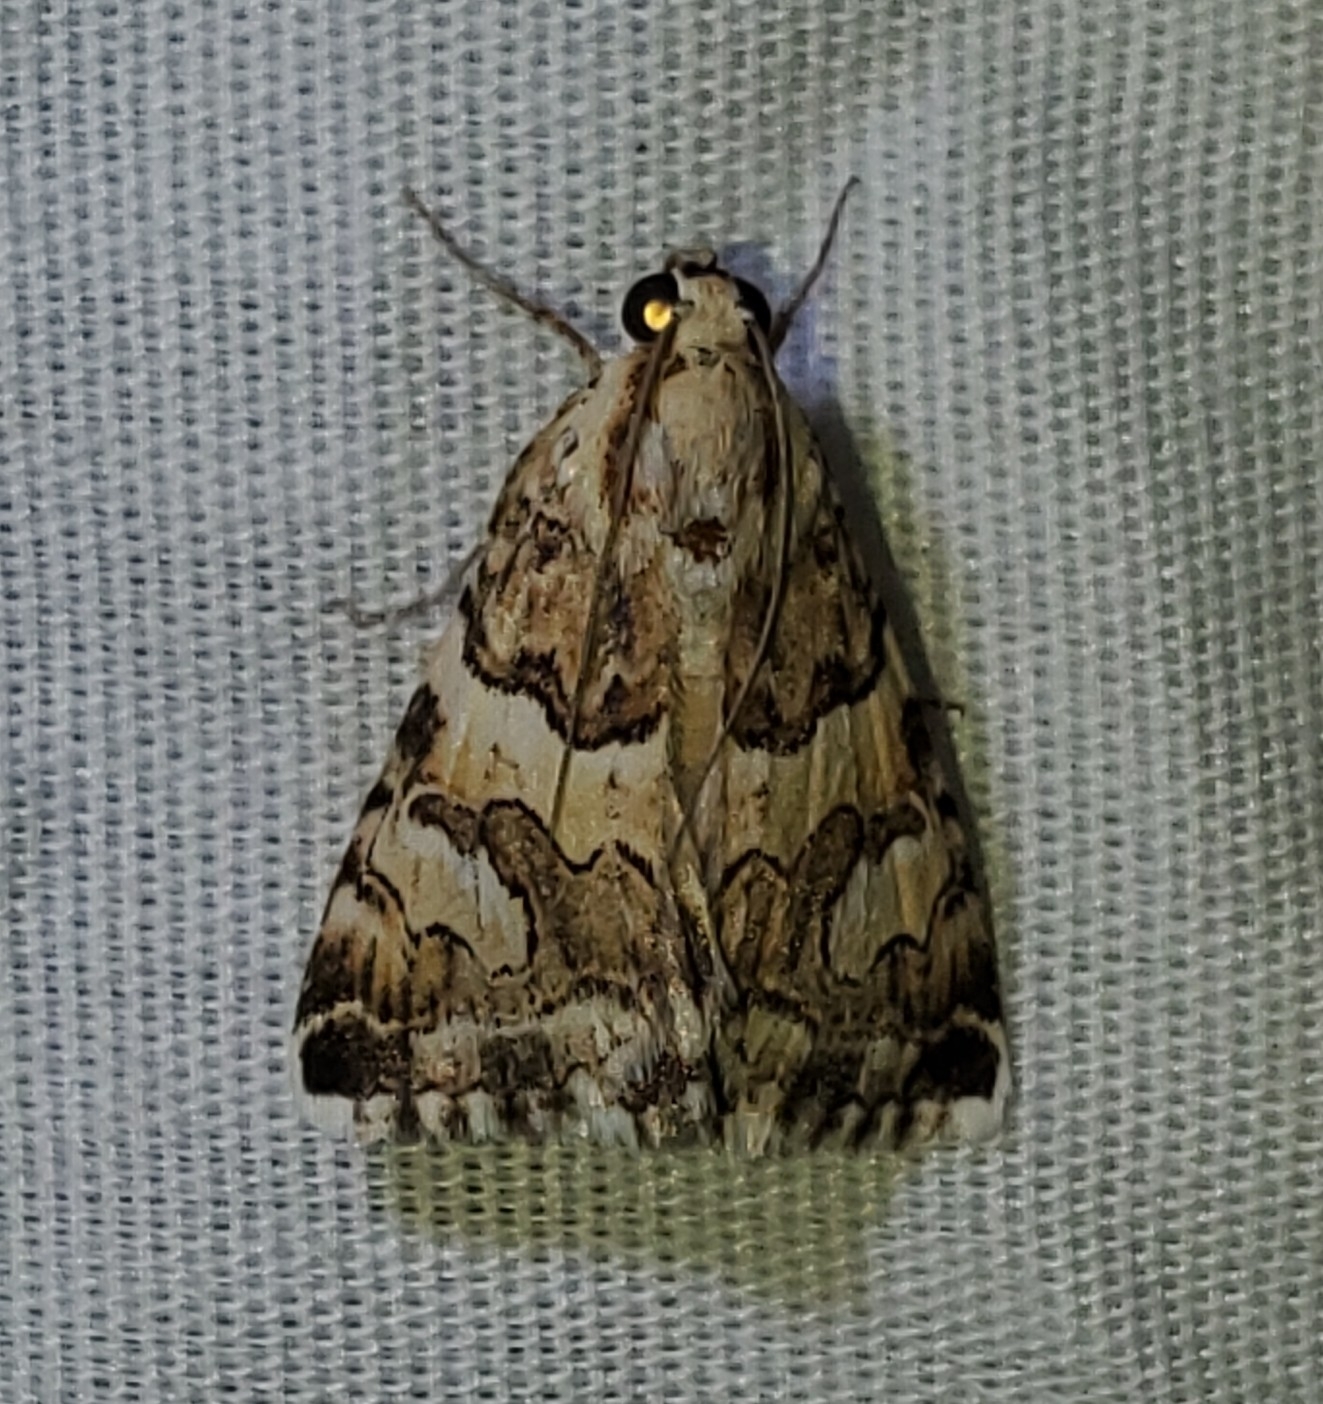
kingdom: Animalia
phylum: Arthropoda
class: Insecta
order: Lepidoptera
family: Erebidae
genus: Drasteria
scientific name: Drasteria eubapta
